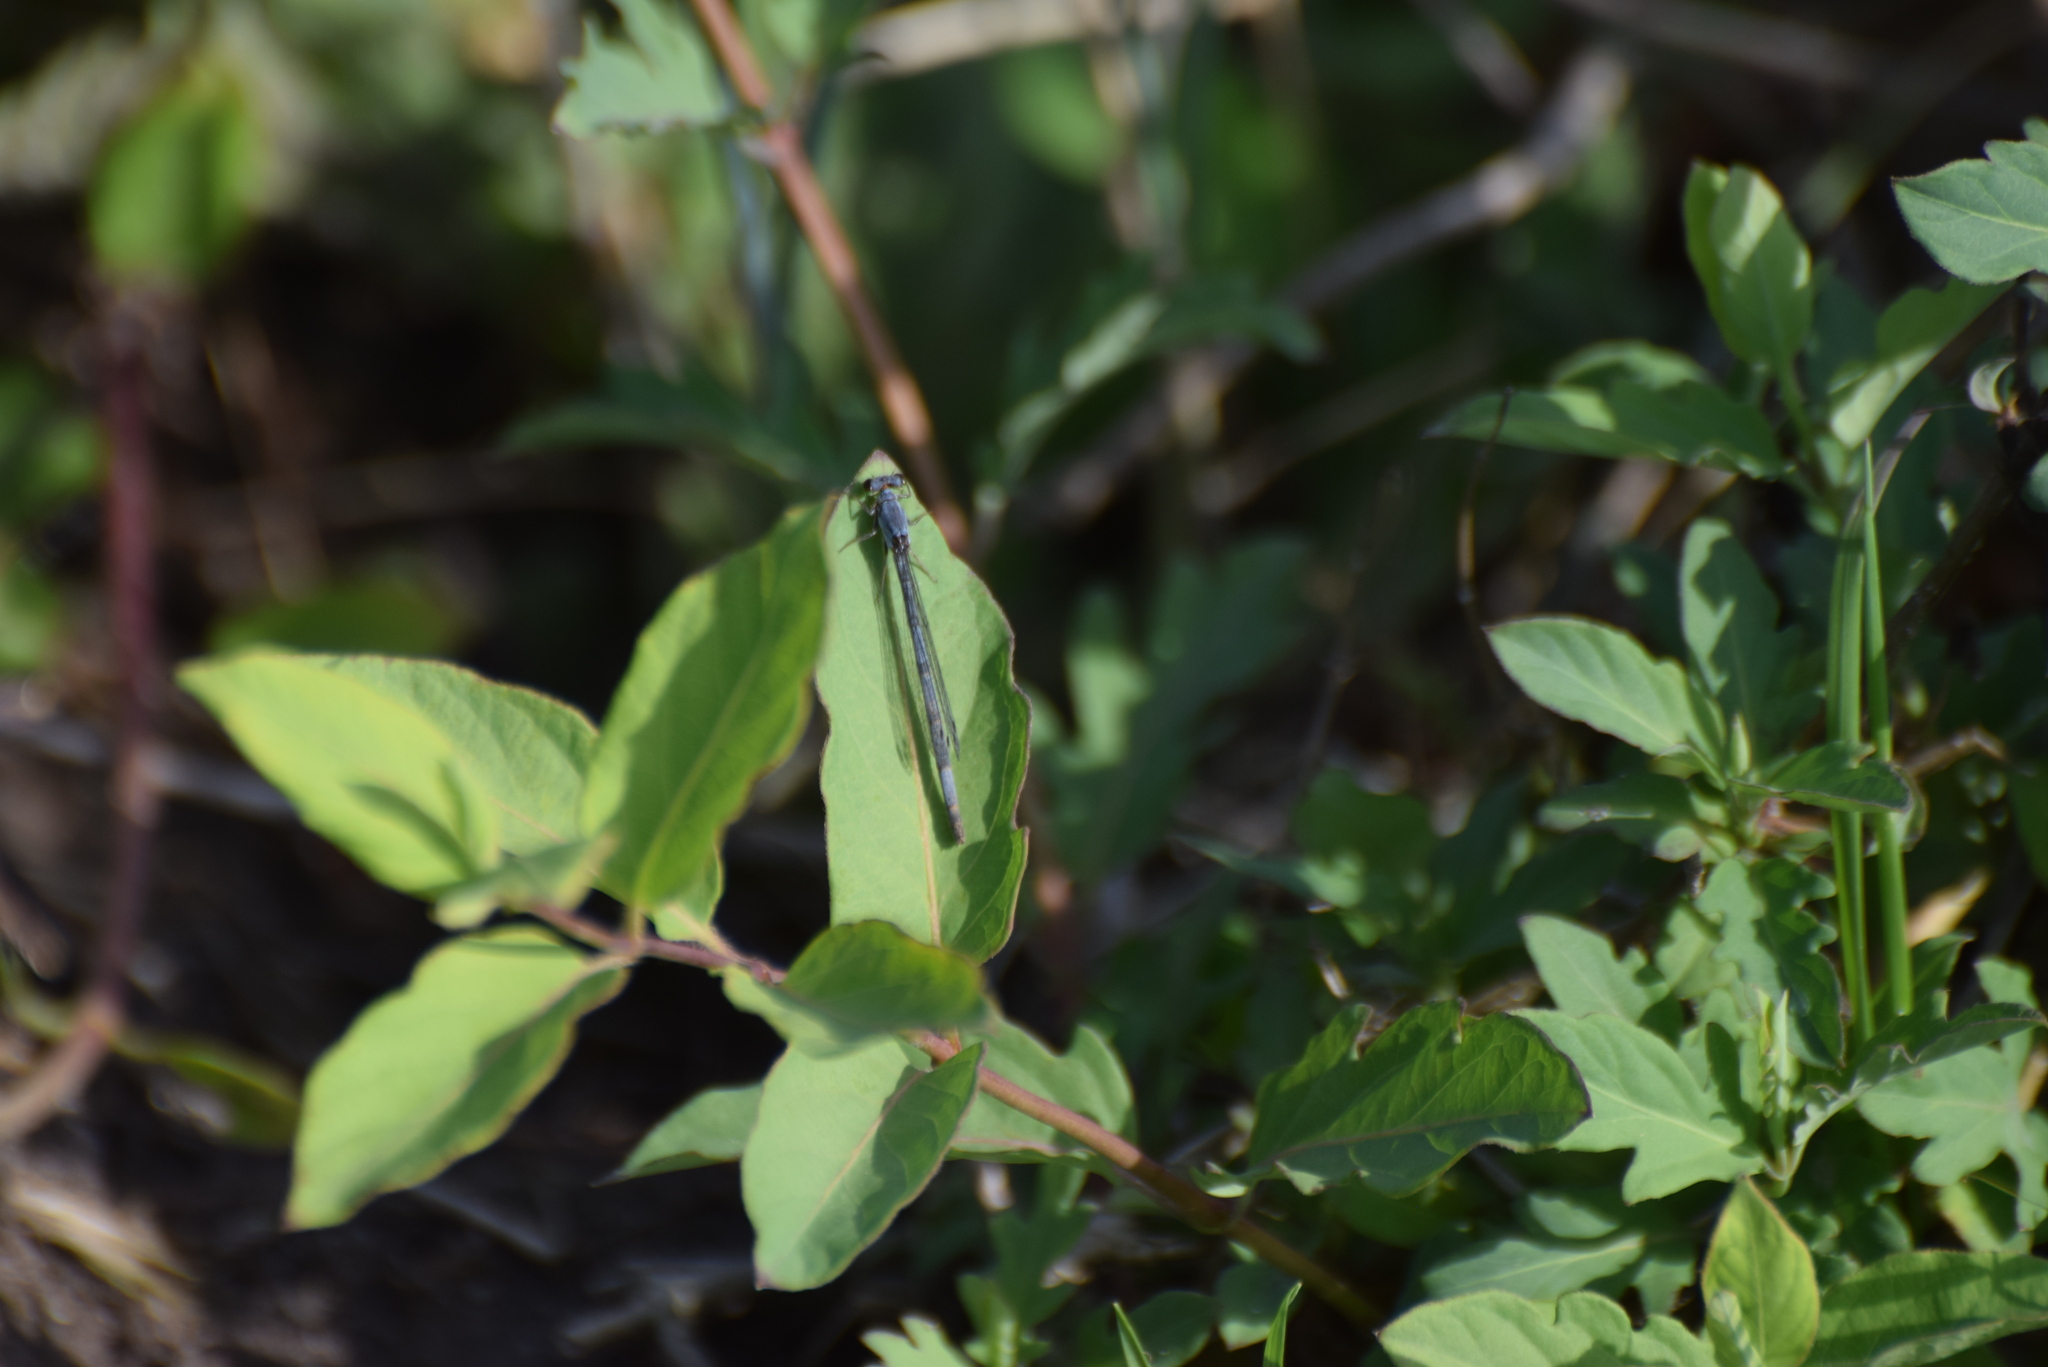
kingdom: Animalia
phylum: Arthropoda
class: Insecta
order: Odonata
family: Coenagrionidae
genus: Ischnura
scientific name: Ischnura posita
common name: Fragile forktail
